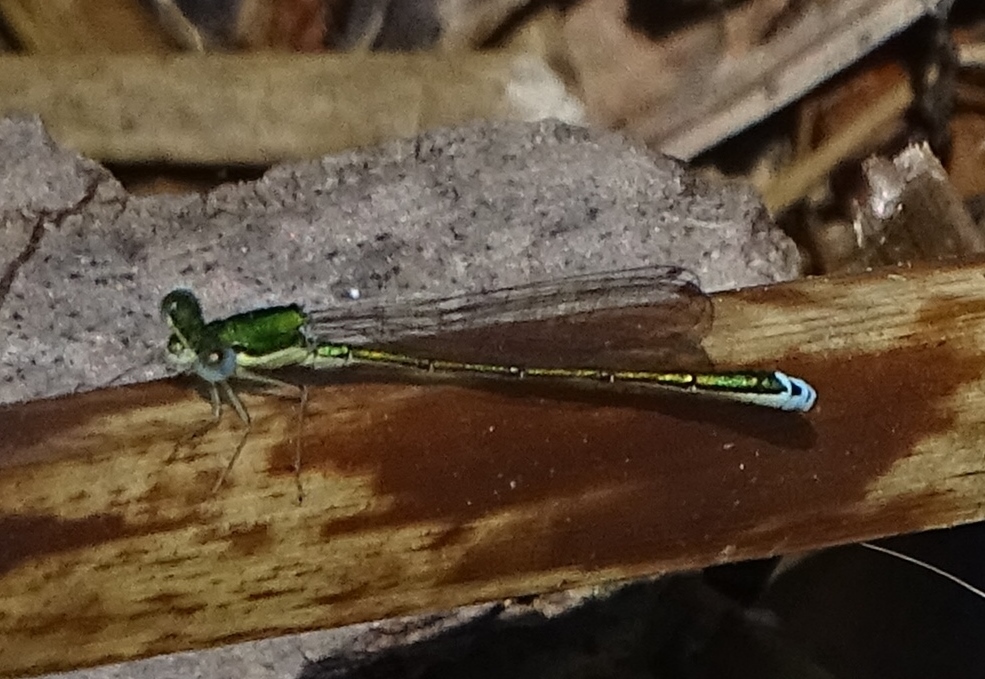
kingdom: Animalia
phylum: Arthropoda
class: Insecta
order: Odonata
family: Coenagrionidae
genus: Nehalennia
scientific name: Nehalennia irene
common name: Sedge sprite
